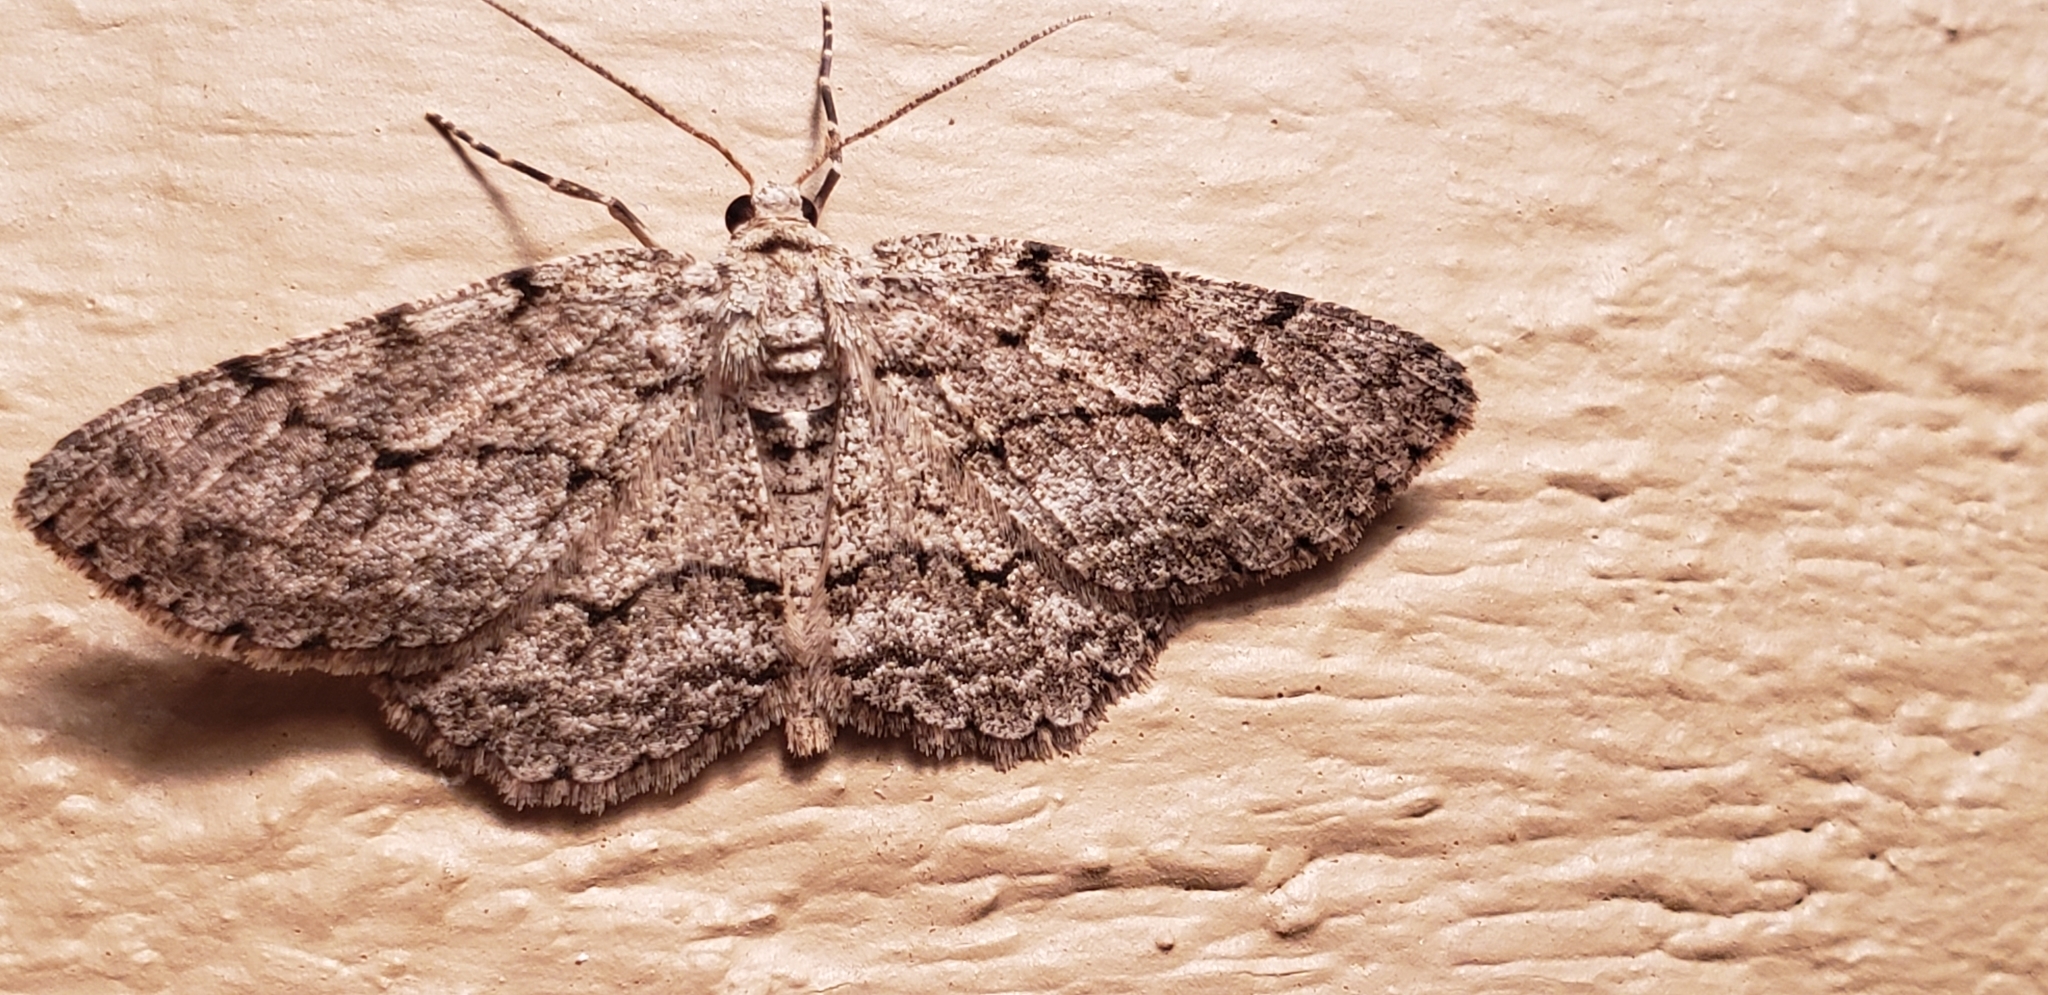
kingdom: Animalia
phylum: Arthropoda
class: Insecta
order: Lepidoptera
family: Geometridae
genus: Ectropis
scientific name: Ectropis crepuscularia
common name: Engrailed
